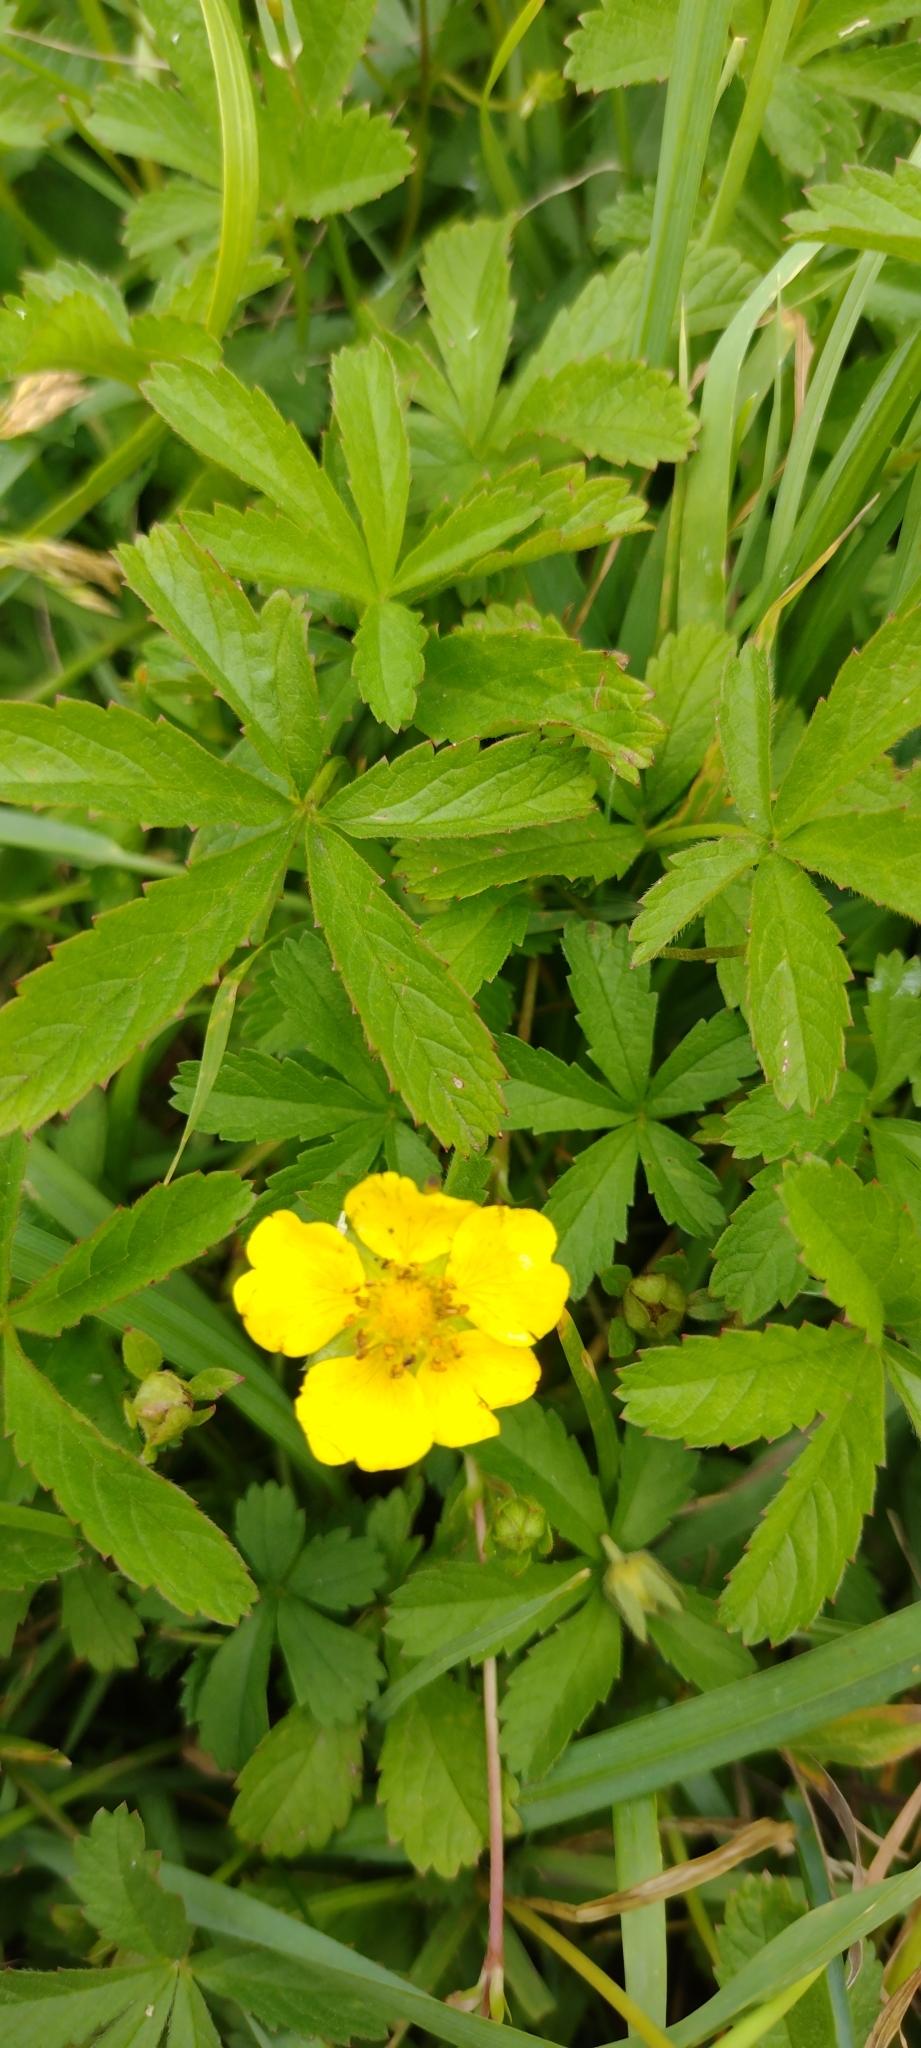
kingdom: Plantae
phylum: Tracheophyta
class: Magnoliopsida
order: Rosales
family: Rosaceae
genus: Potentilla
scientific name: Potentilla reptans
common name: Creeping cinquefoil
